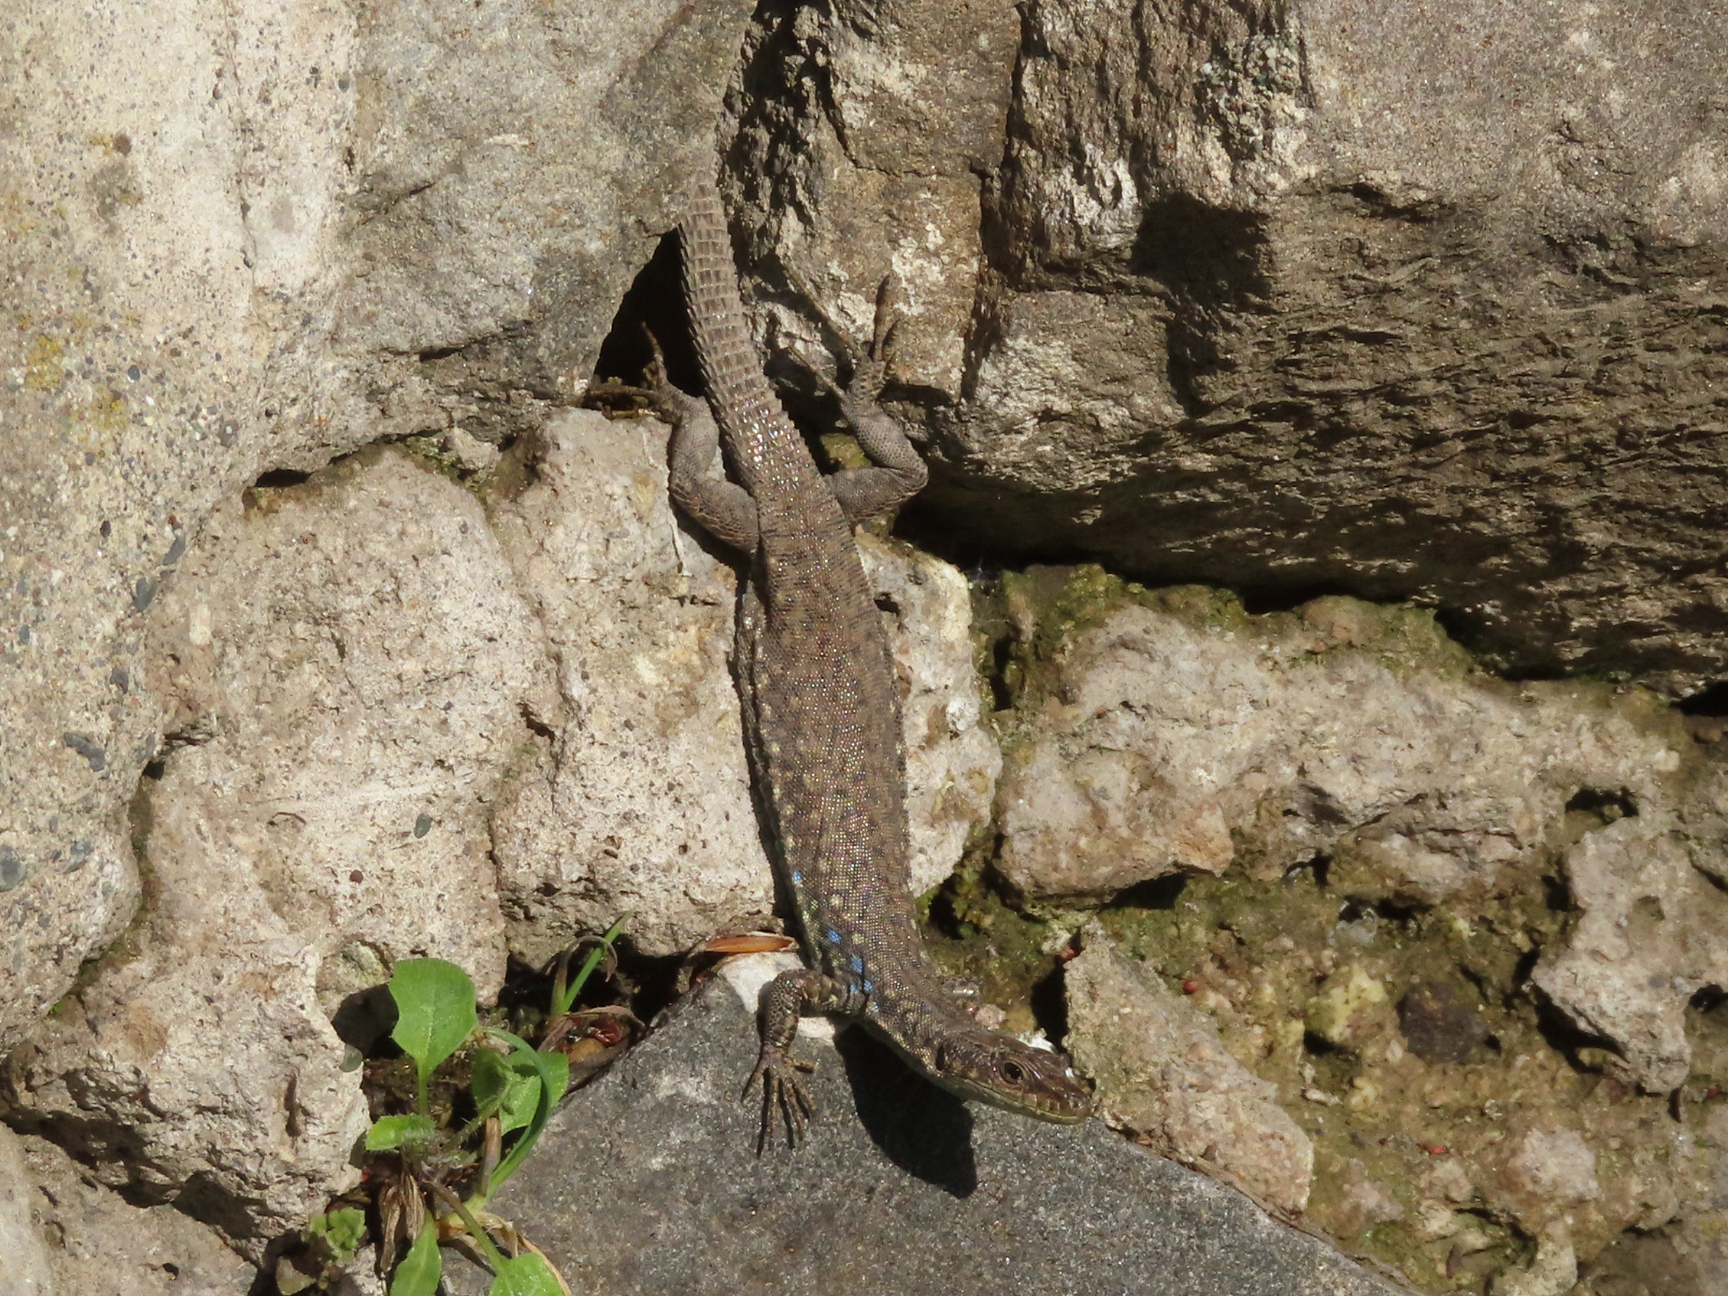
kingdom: Animalia
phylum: Chordata
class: Squamata
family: Lacertidae
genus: Darevskia
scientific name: Darevskia
